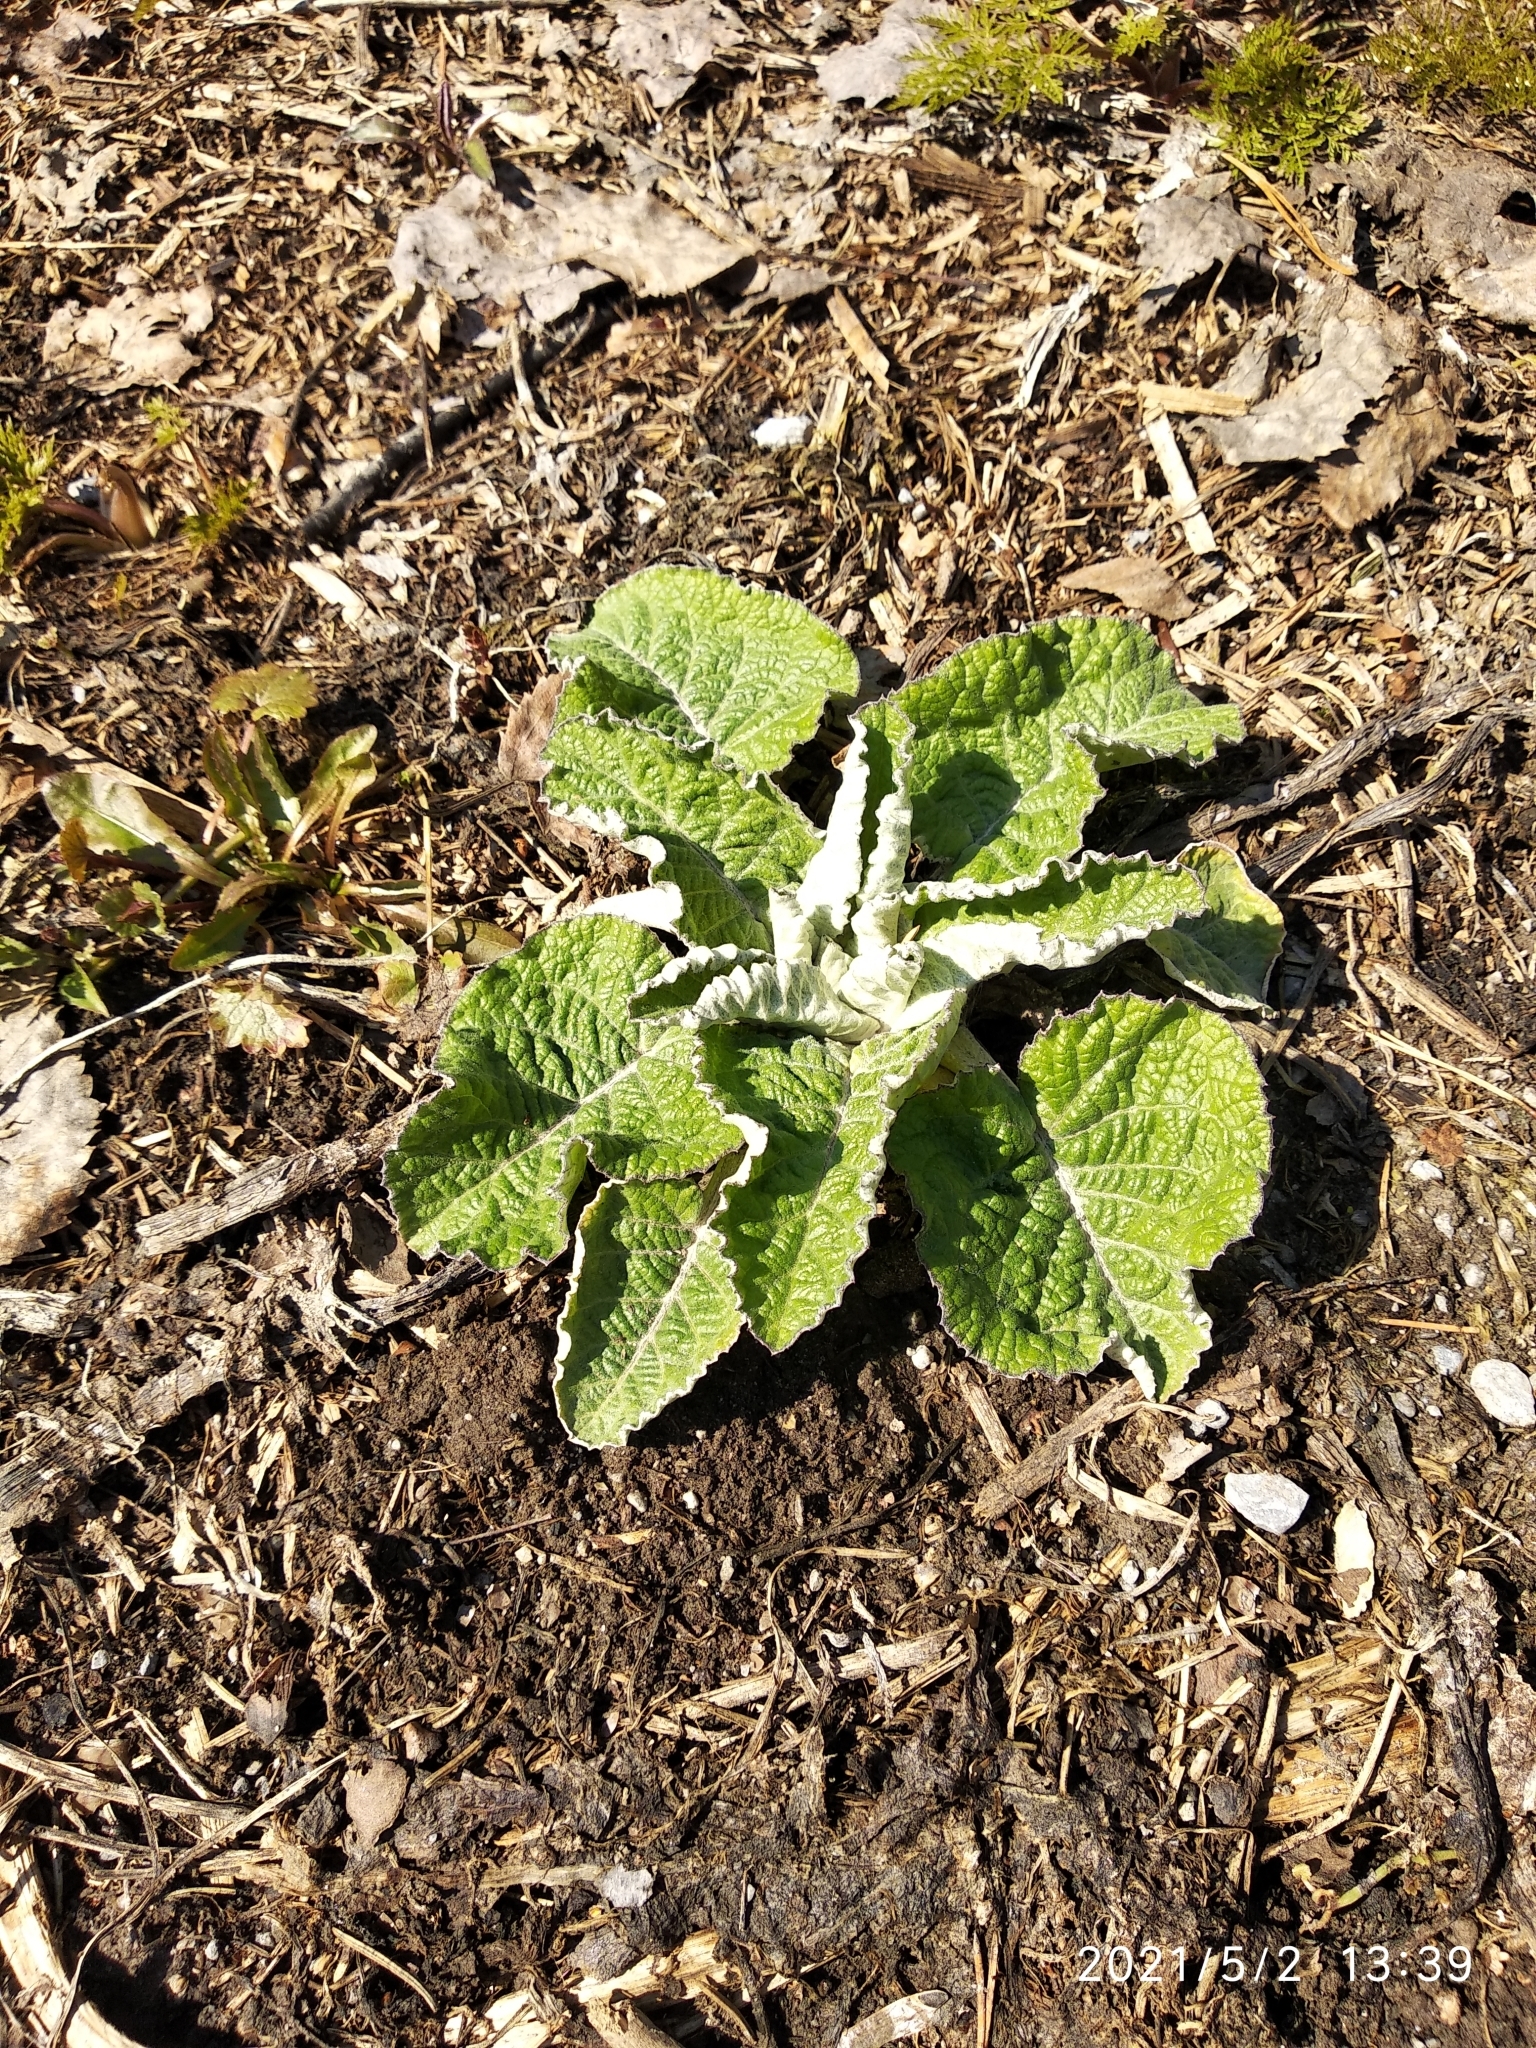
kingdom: Plantae
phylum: Tracheophyta
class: Magnoliopsida
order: Asterales
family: Asteraceae
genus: Arctium
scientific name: Arctium tomentosum
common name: Woolly burdock
